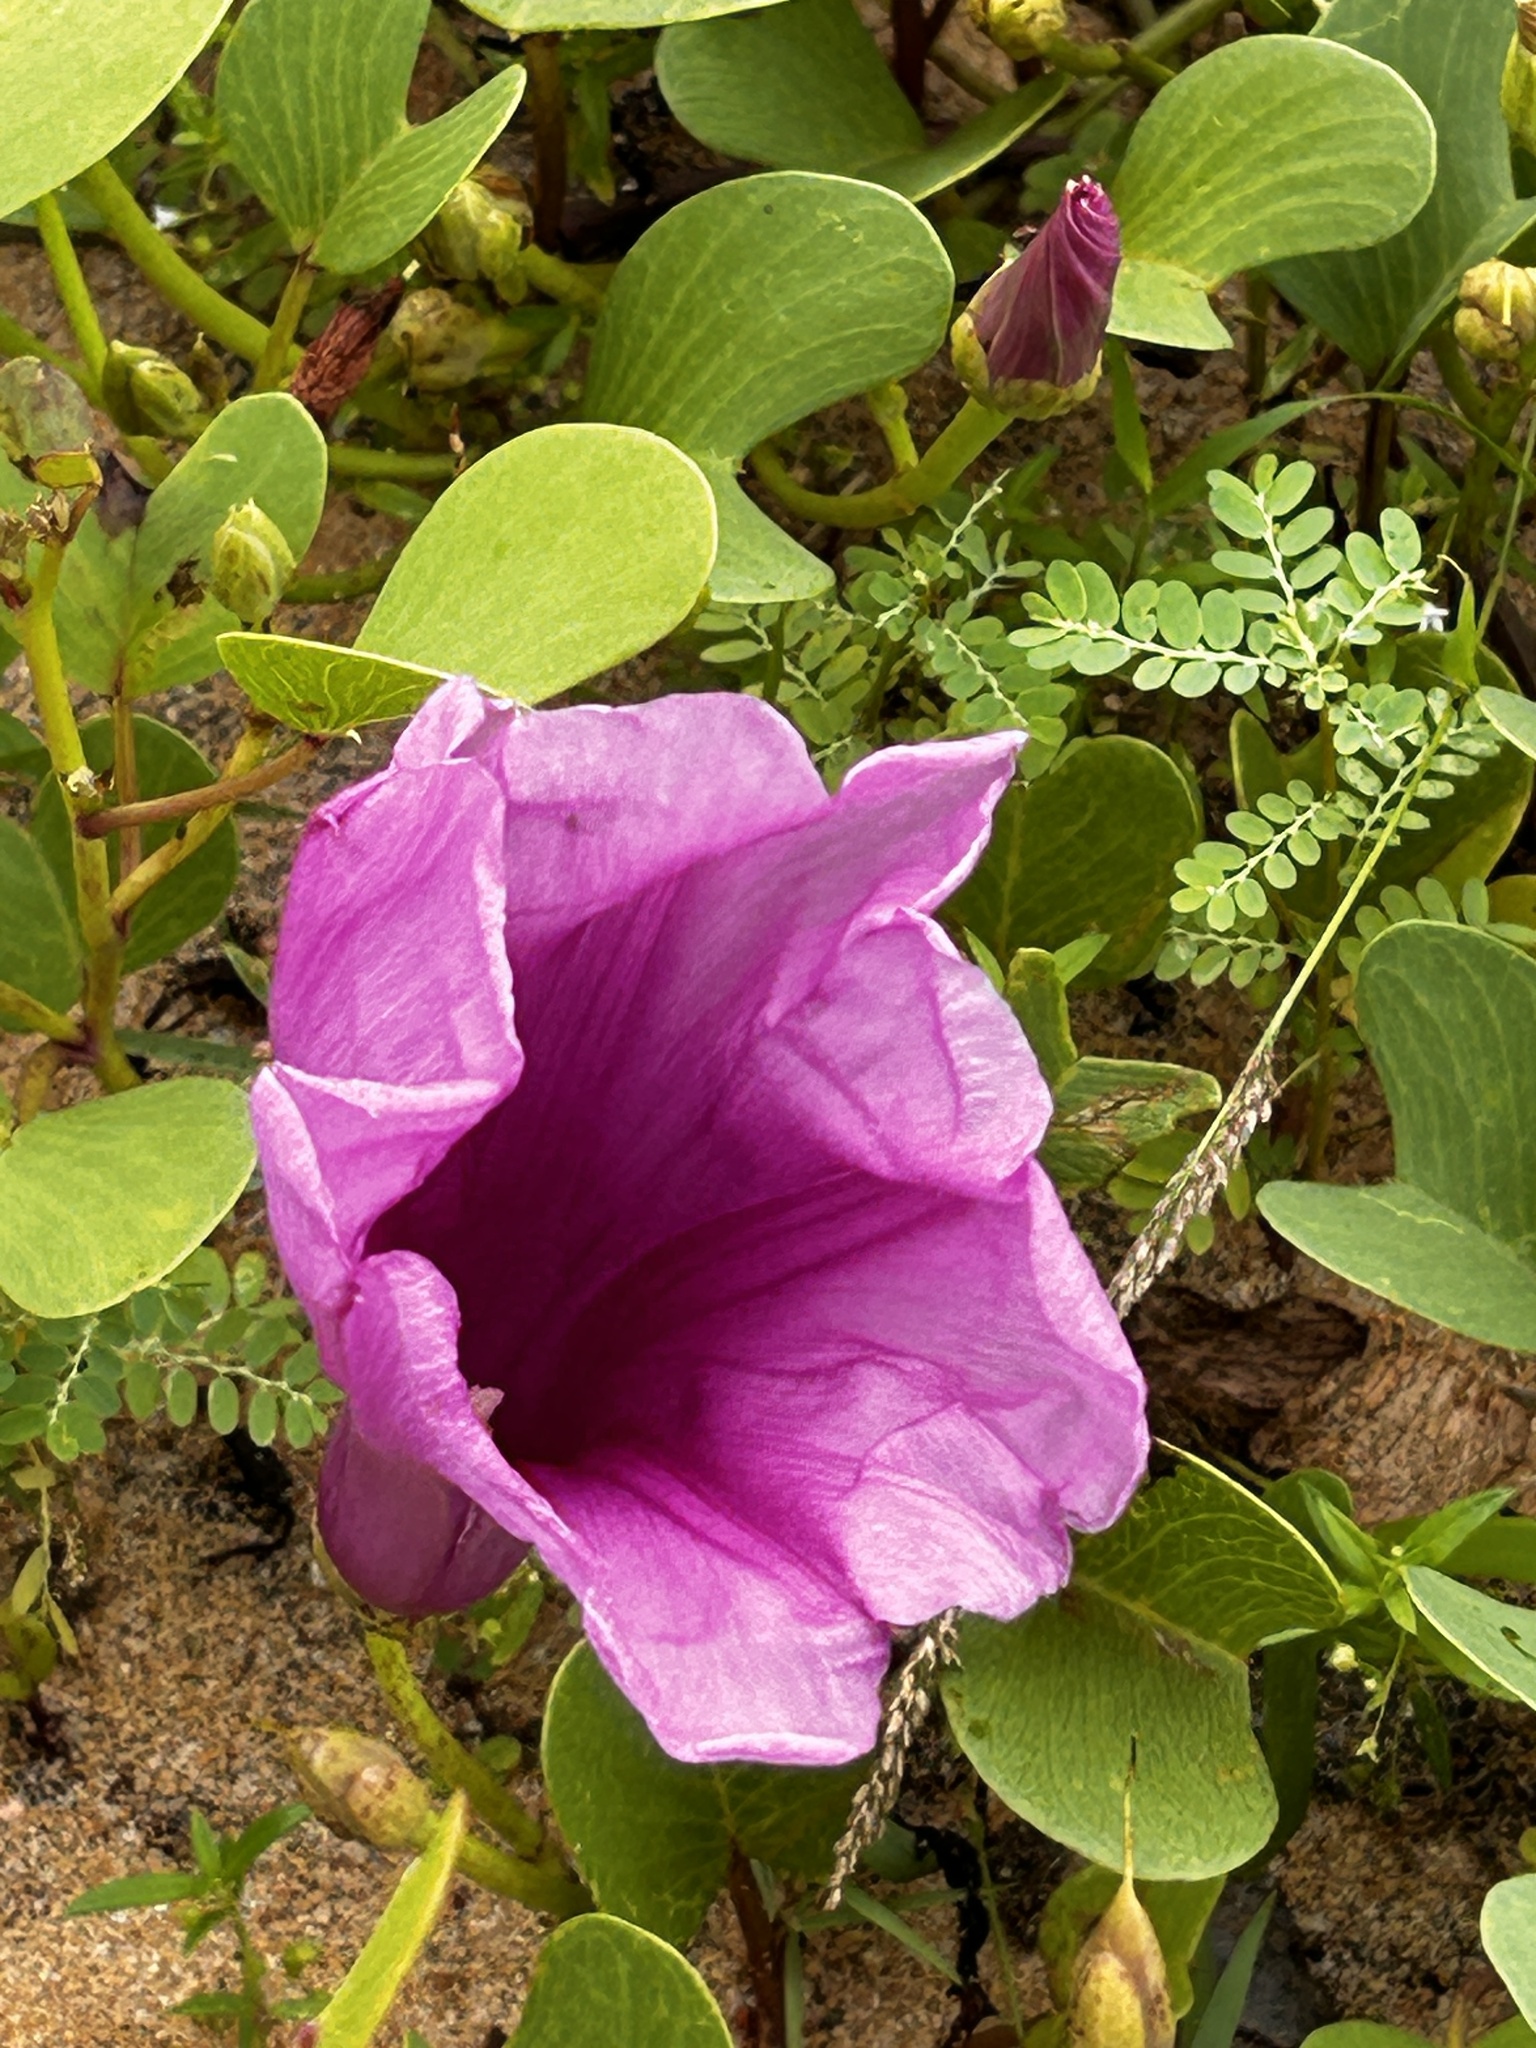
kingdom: Plantae
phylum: Tracheophyta
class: Magnoliopsida
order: Solanales
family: Convolvulaceae
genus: Ipomoea
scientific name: Ipomoea pes-caprae
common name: Beach morning glory
